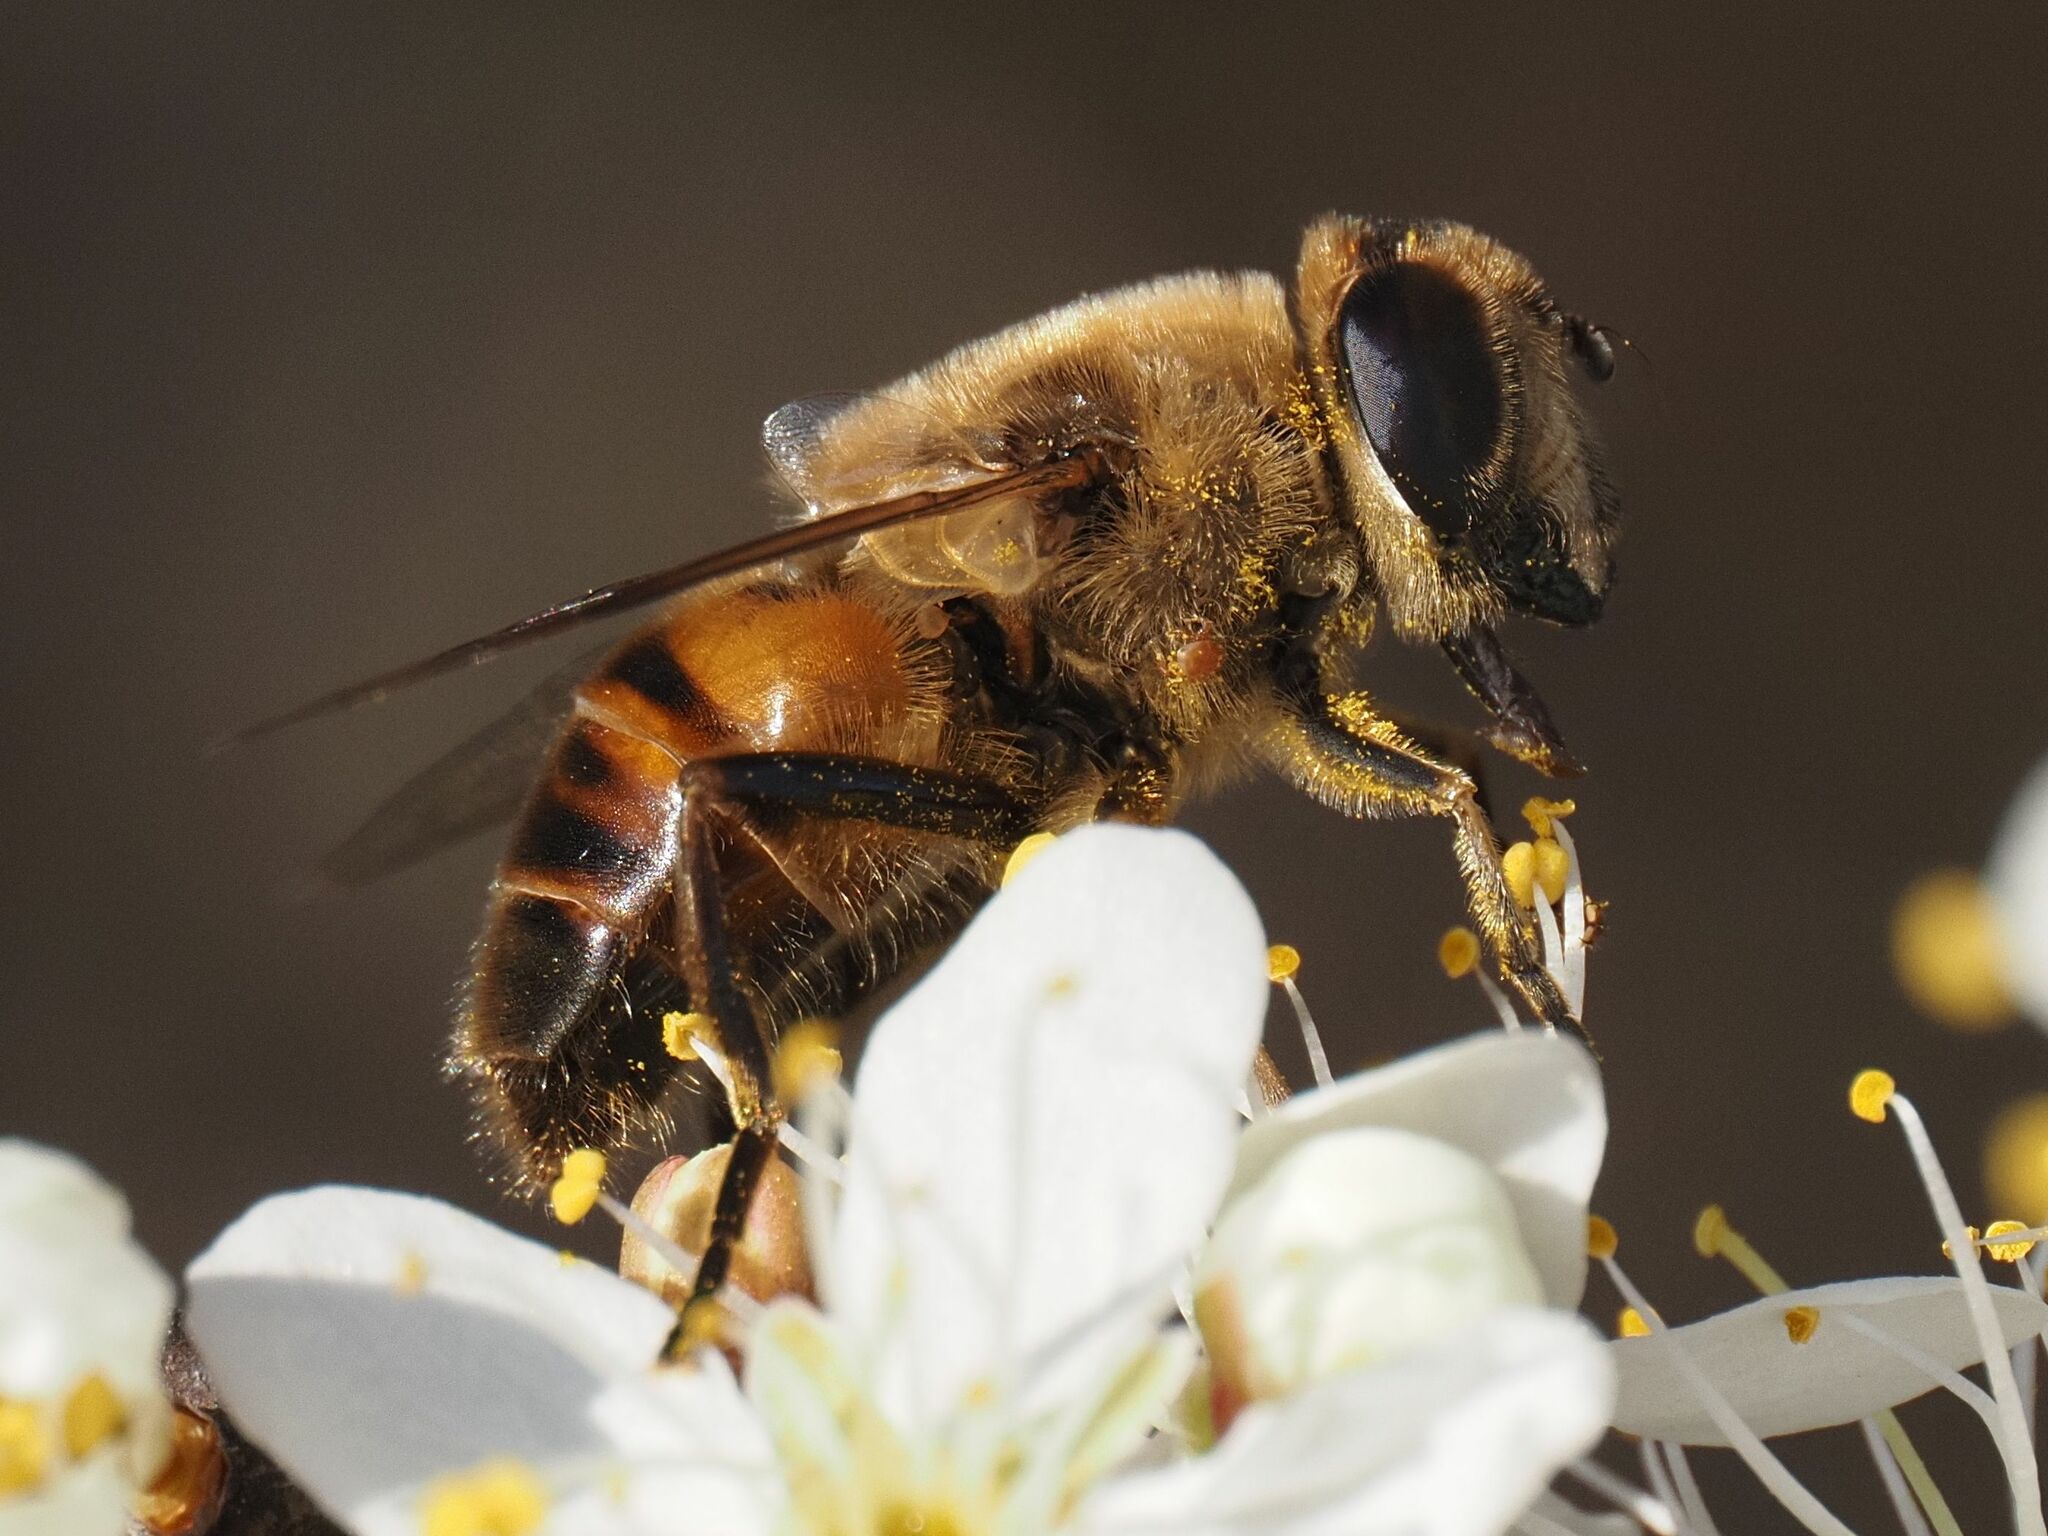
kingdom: Animalia
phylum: Arthropoda
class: Insecta
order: Diptera
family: Syrphidae
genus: Eristalis
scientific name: Eristalis tenax
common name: Drone fly
